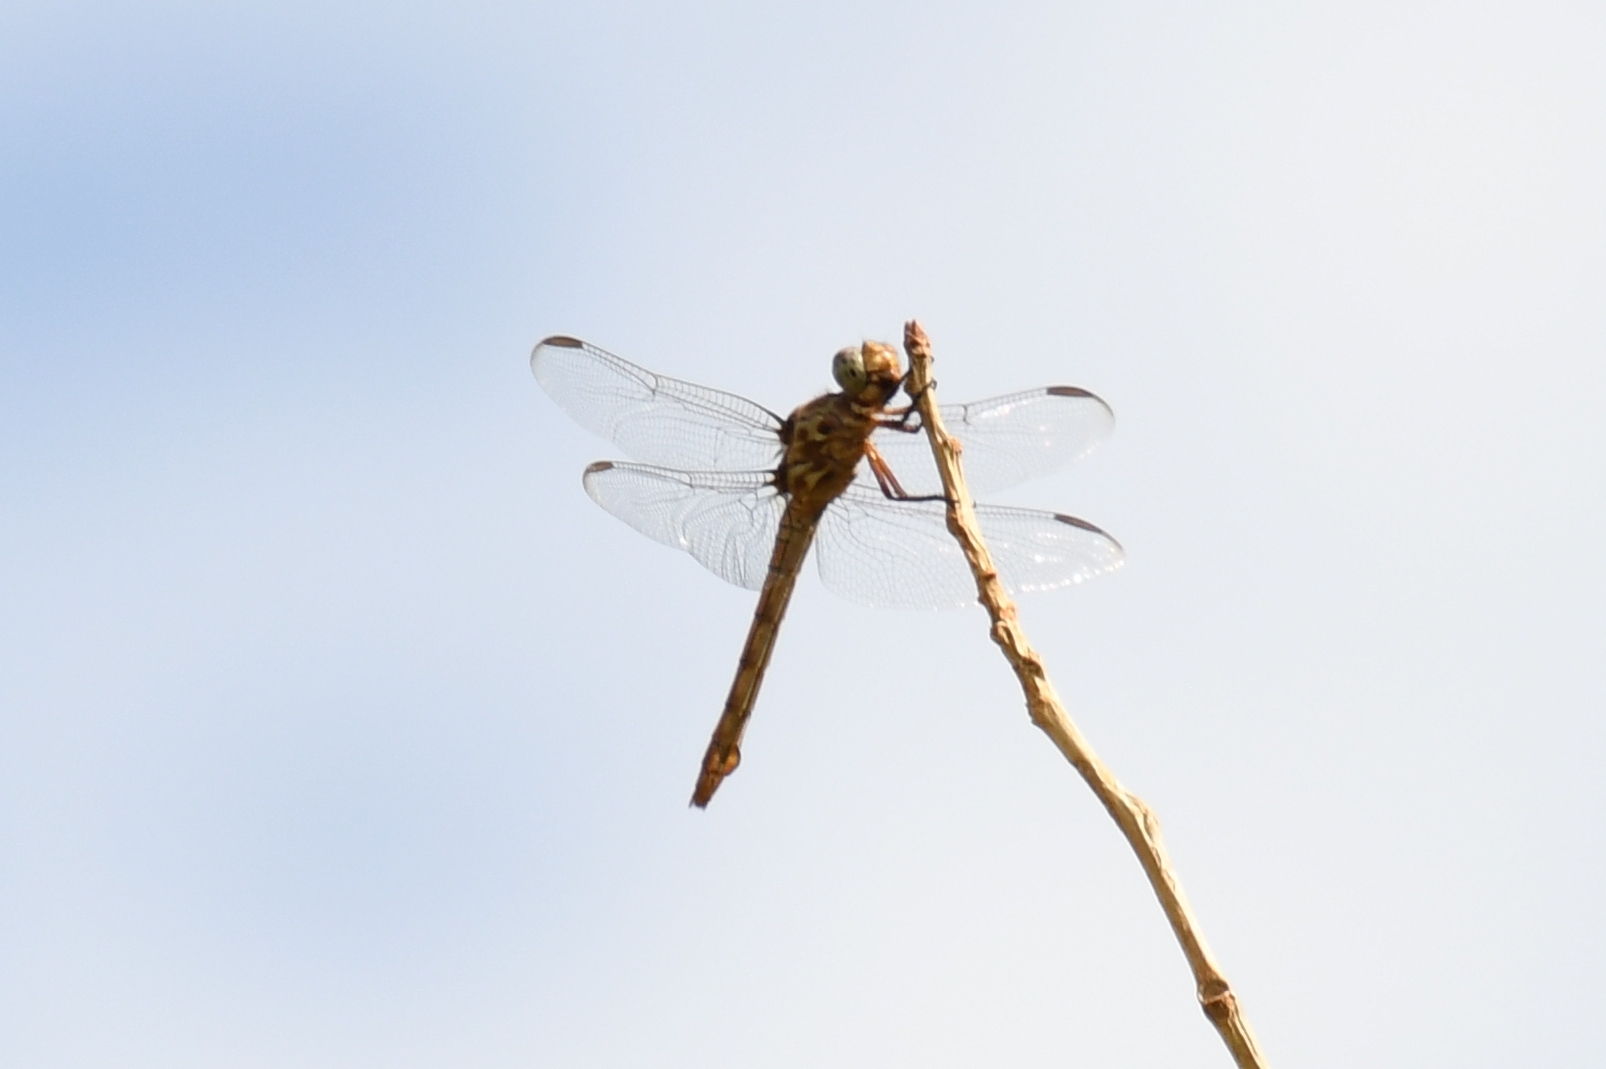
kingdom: Animalia
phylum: Arthropoda
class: Insecta
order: Odonata
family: Libellulidae
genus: Orthemis
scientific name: Orthemis ferruginea
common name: Roseate skimmer
